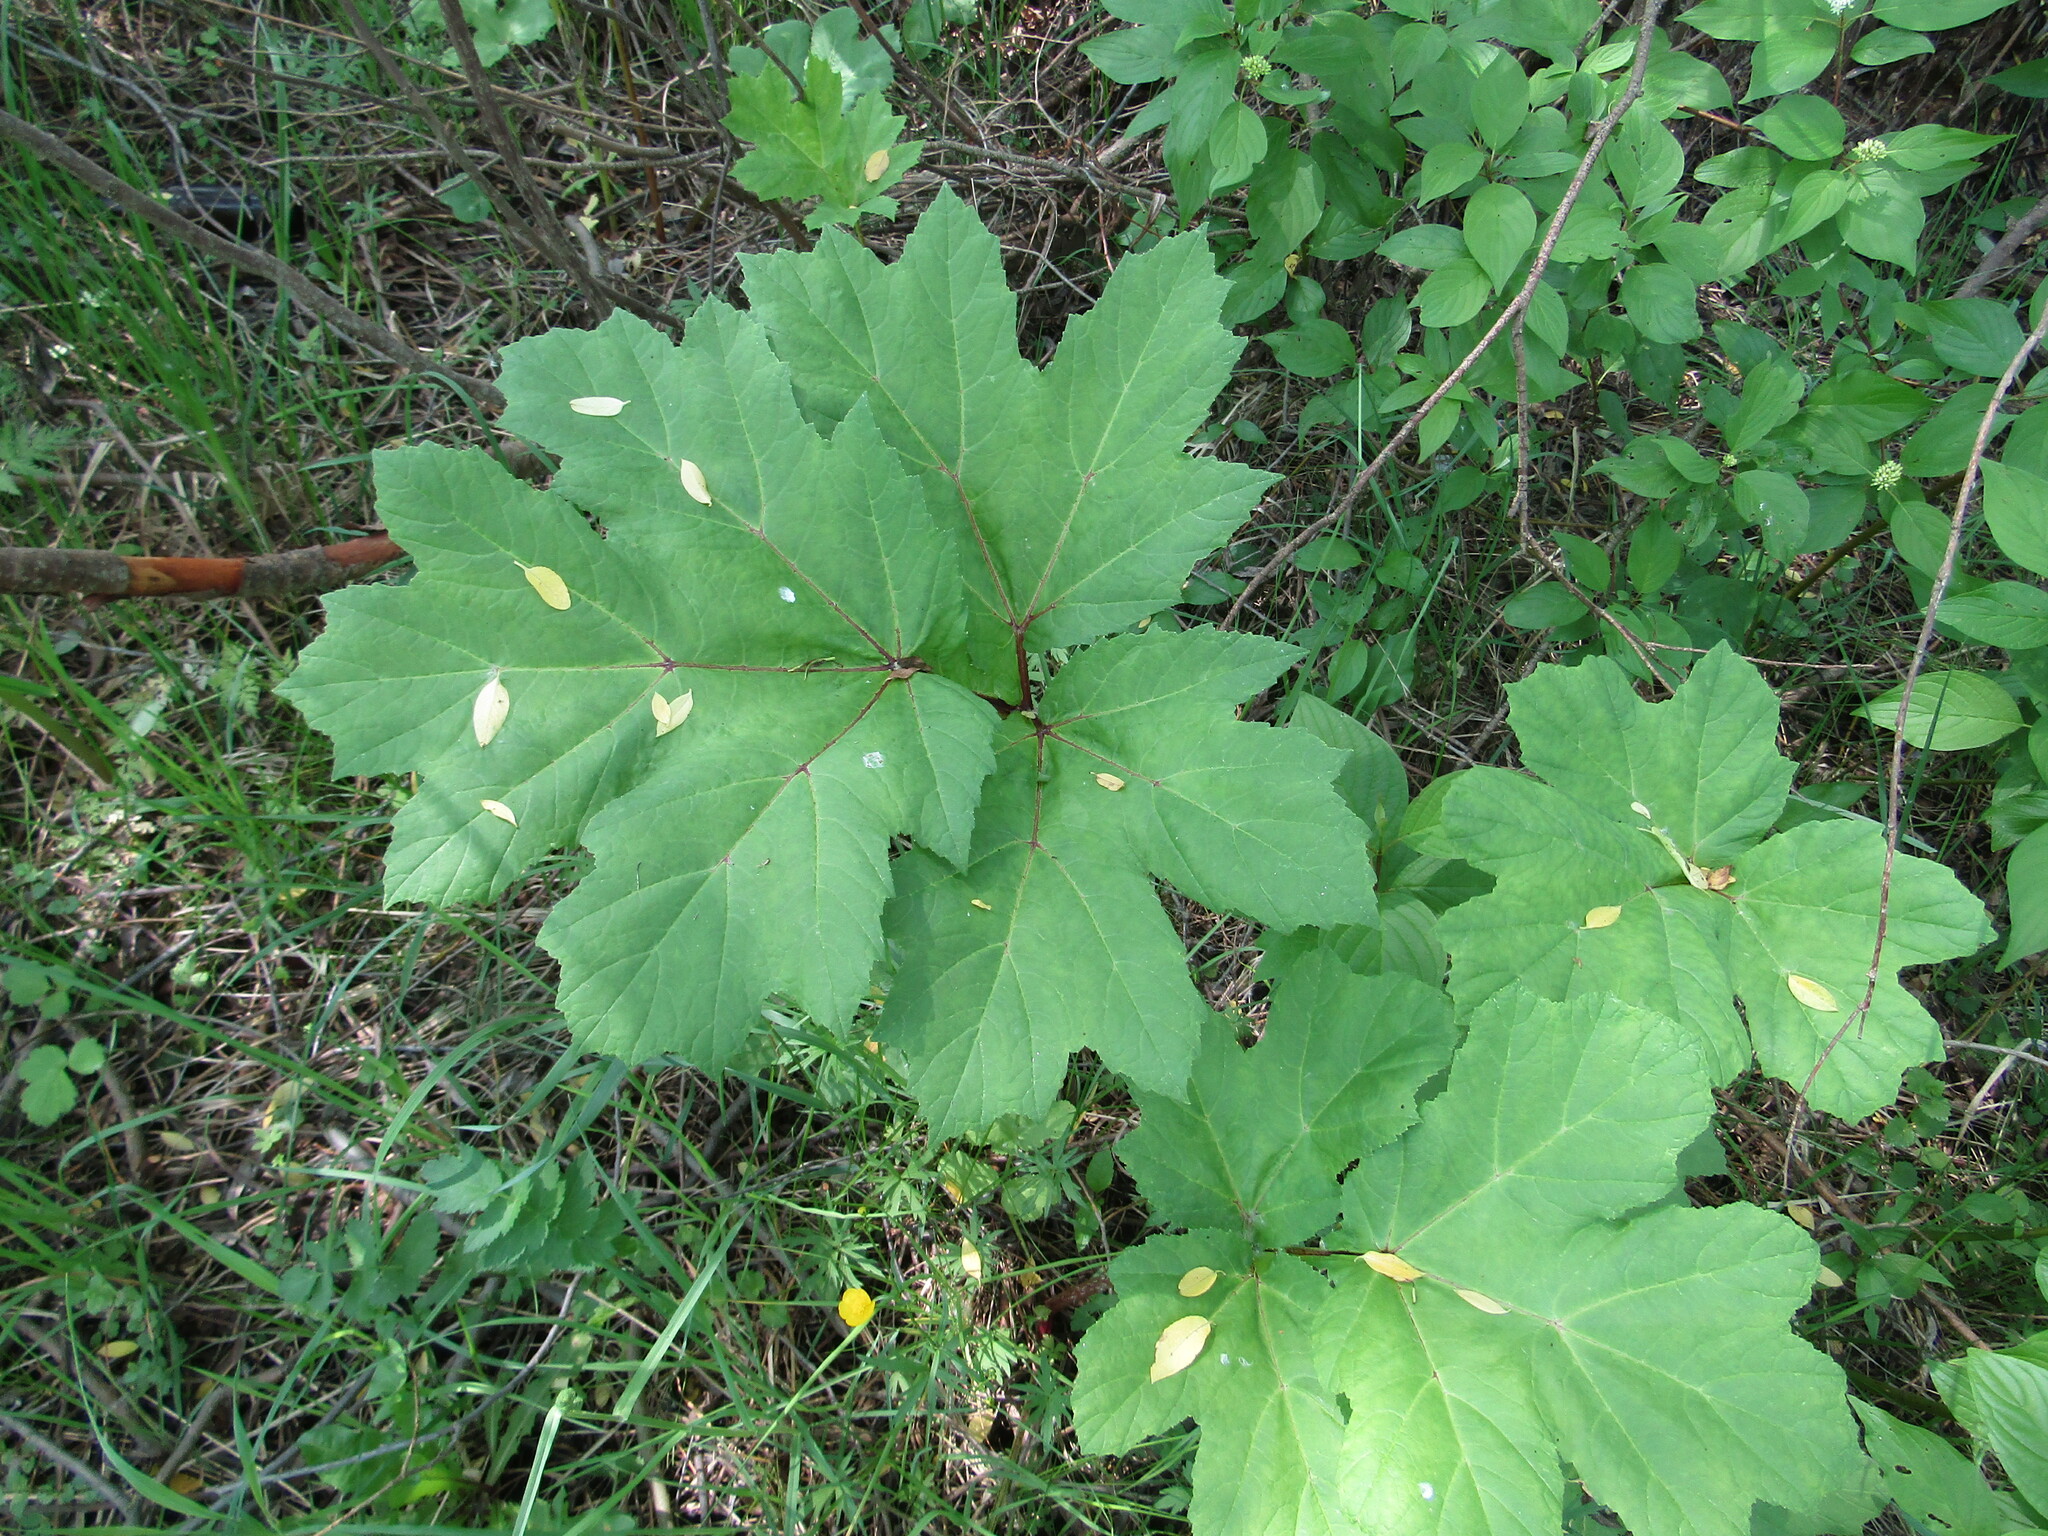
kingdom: Plantae
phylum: Tracheophyta
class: Magnoliopsida
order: Apiales
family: Apiaceae
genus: Heracleum
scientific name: Heracleum sosnowskyi
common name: Sosnowsky's hogweed
